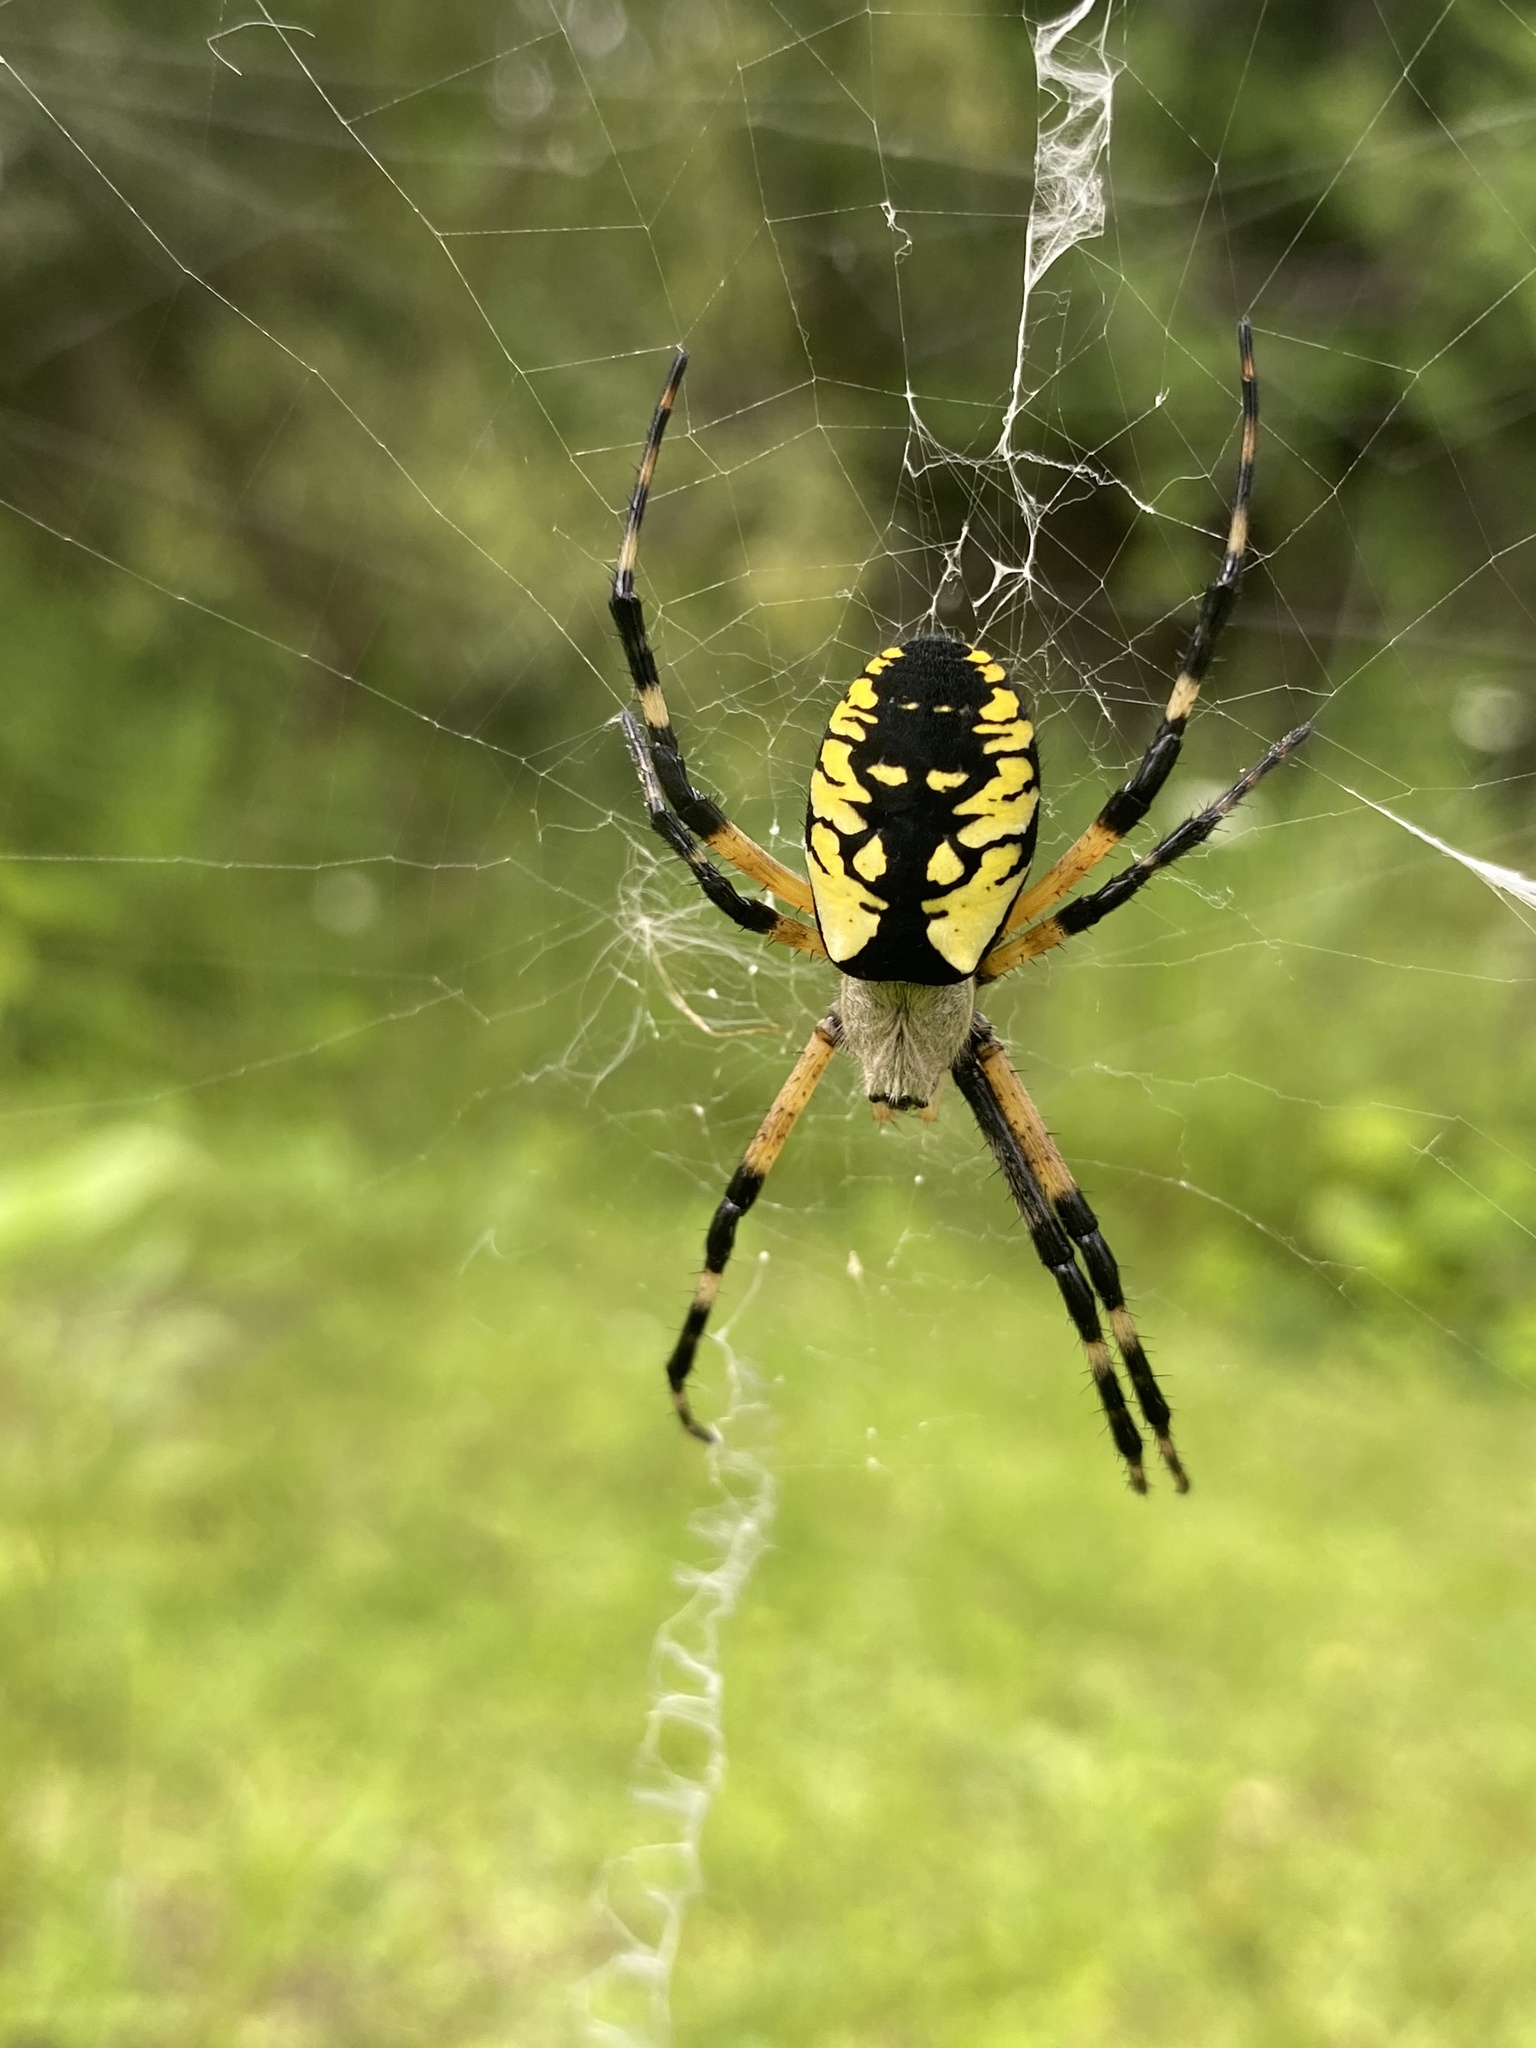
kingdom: Animalia
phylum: Arthropoda
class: Arachnida
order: Araneae
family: Araneidae
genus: Argiope
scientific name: Argiope aurantia
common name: Orb weavers
